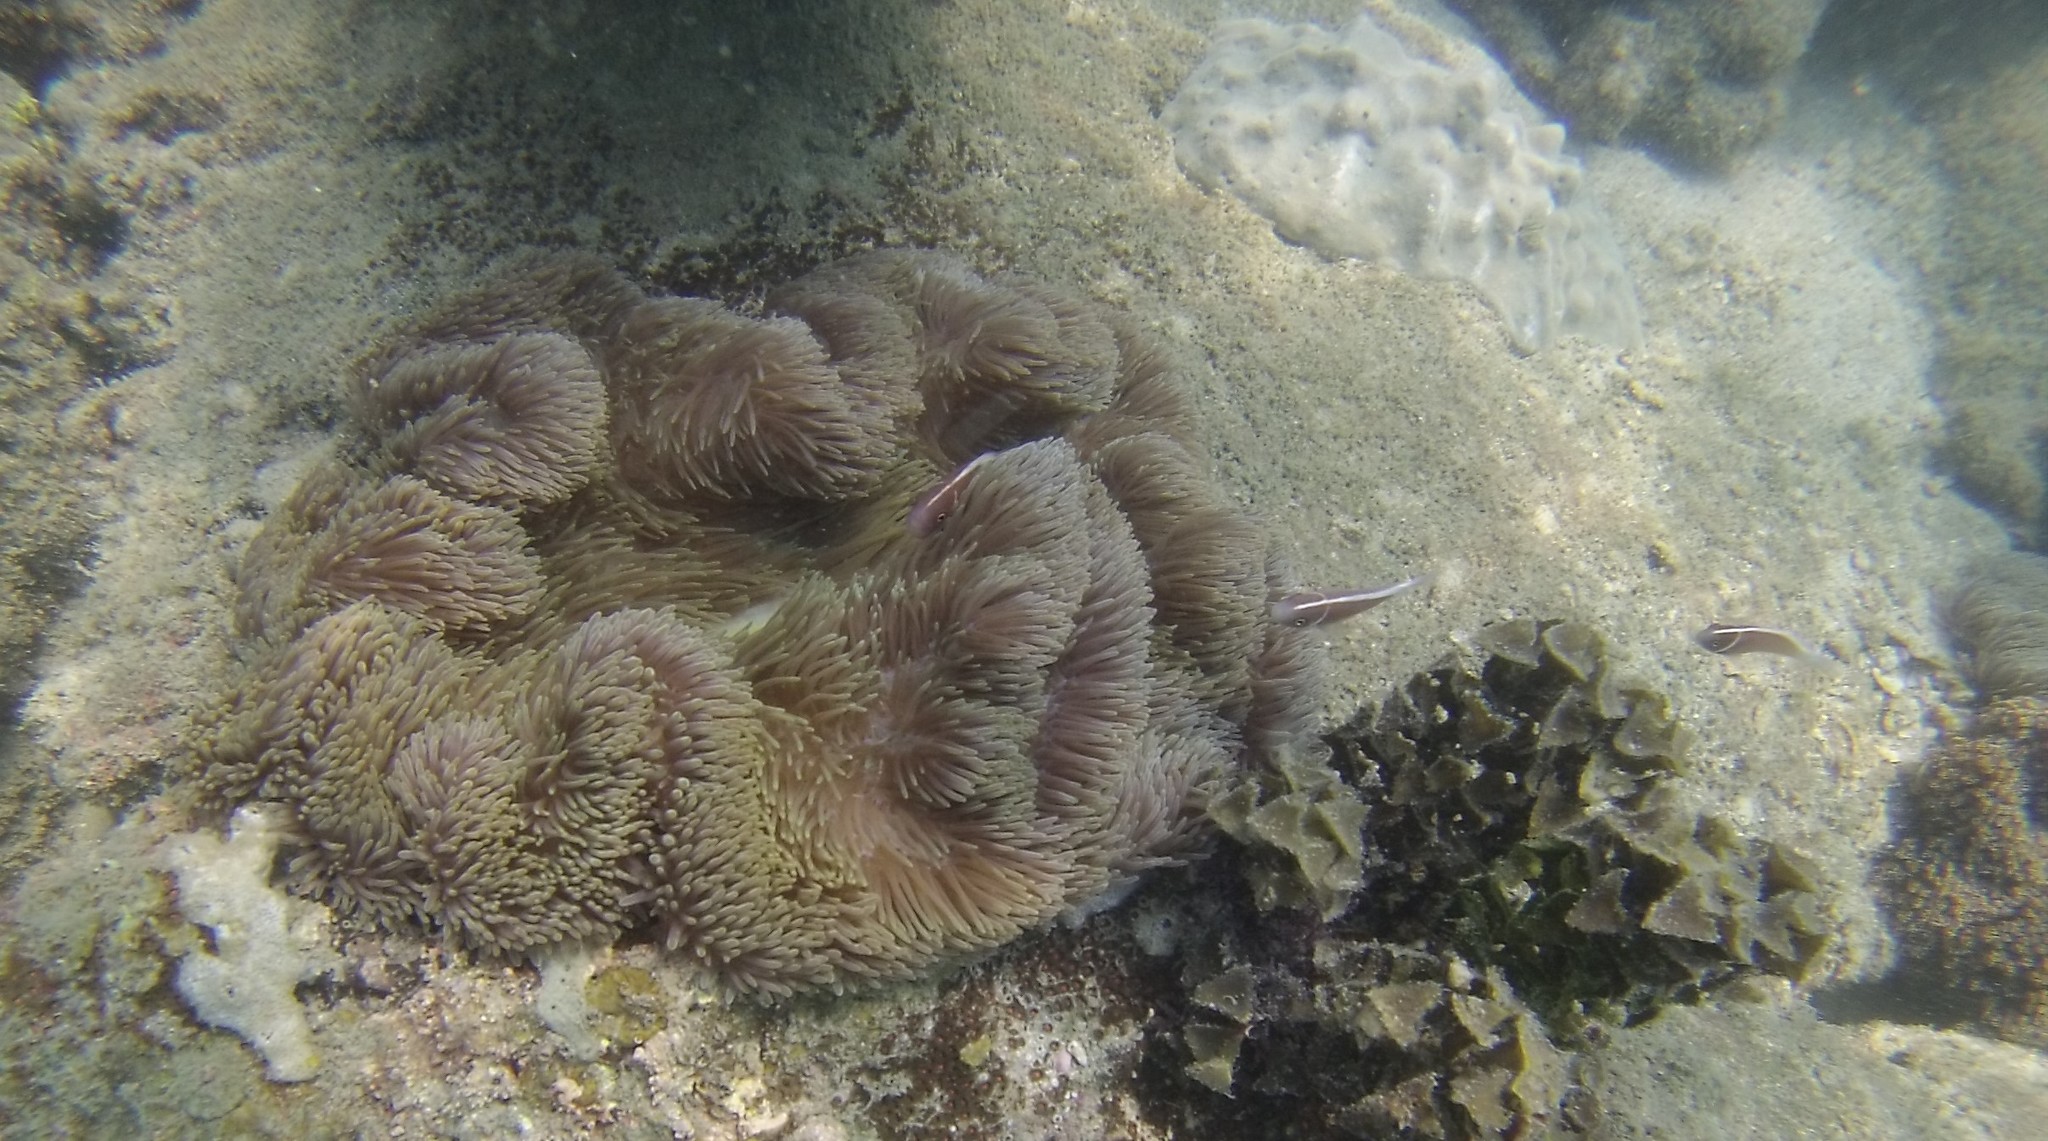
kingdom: Animalia
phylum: Chordata
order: Perciformes
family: Pomacentridae
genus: Amphiprion
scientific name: Amphiprion perideraion
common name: Pink anemonefish
